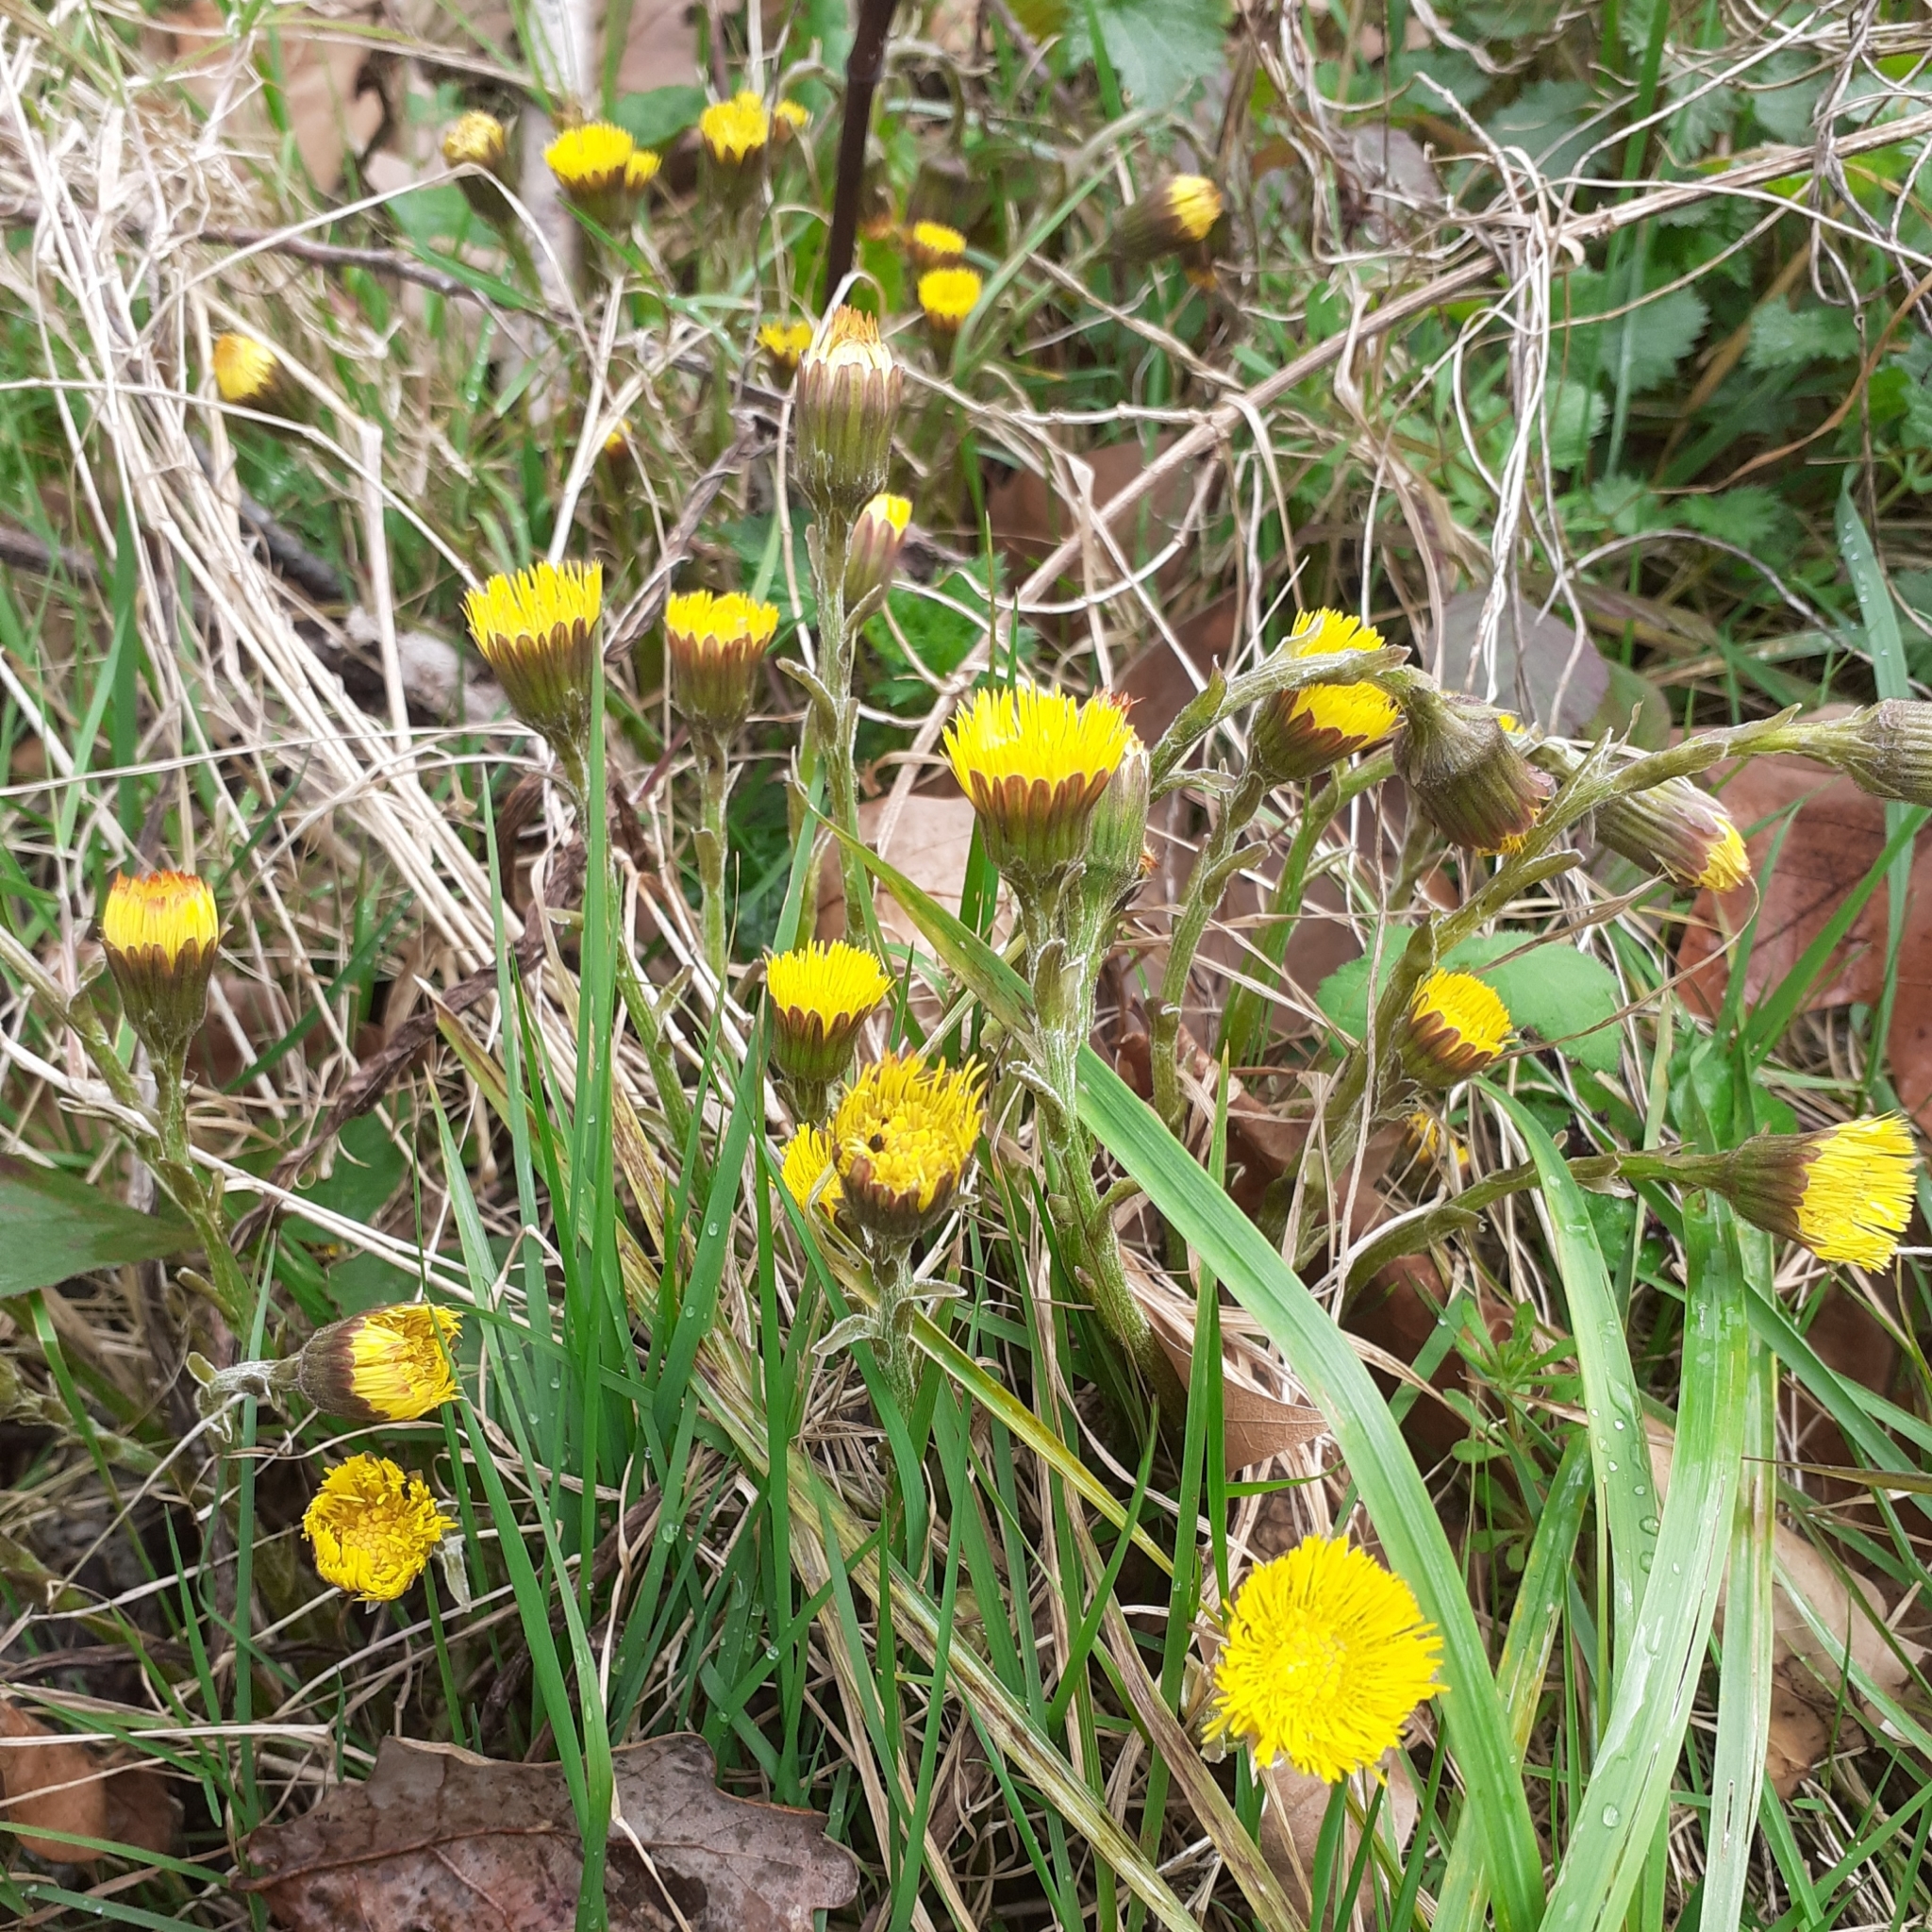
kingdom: Plantae
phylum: Tracheophyta
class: Magnoliopsida
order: Asterales
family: Asteraceae
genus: Tussilago
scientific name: Tussilago farfara
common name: Coltsfoot
